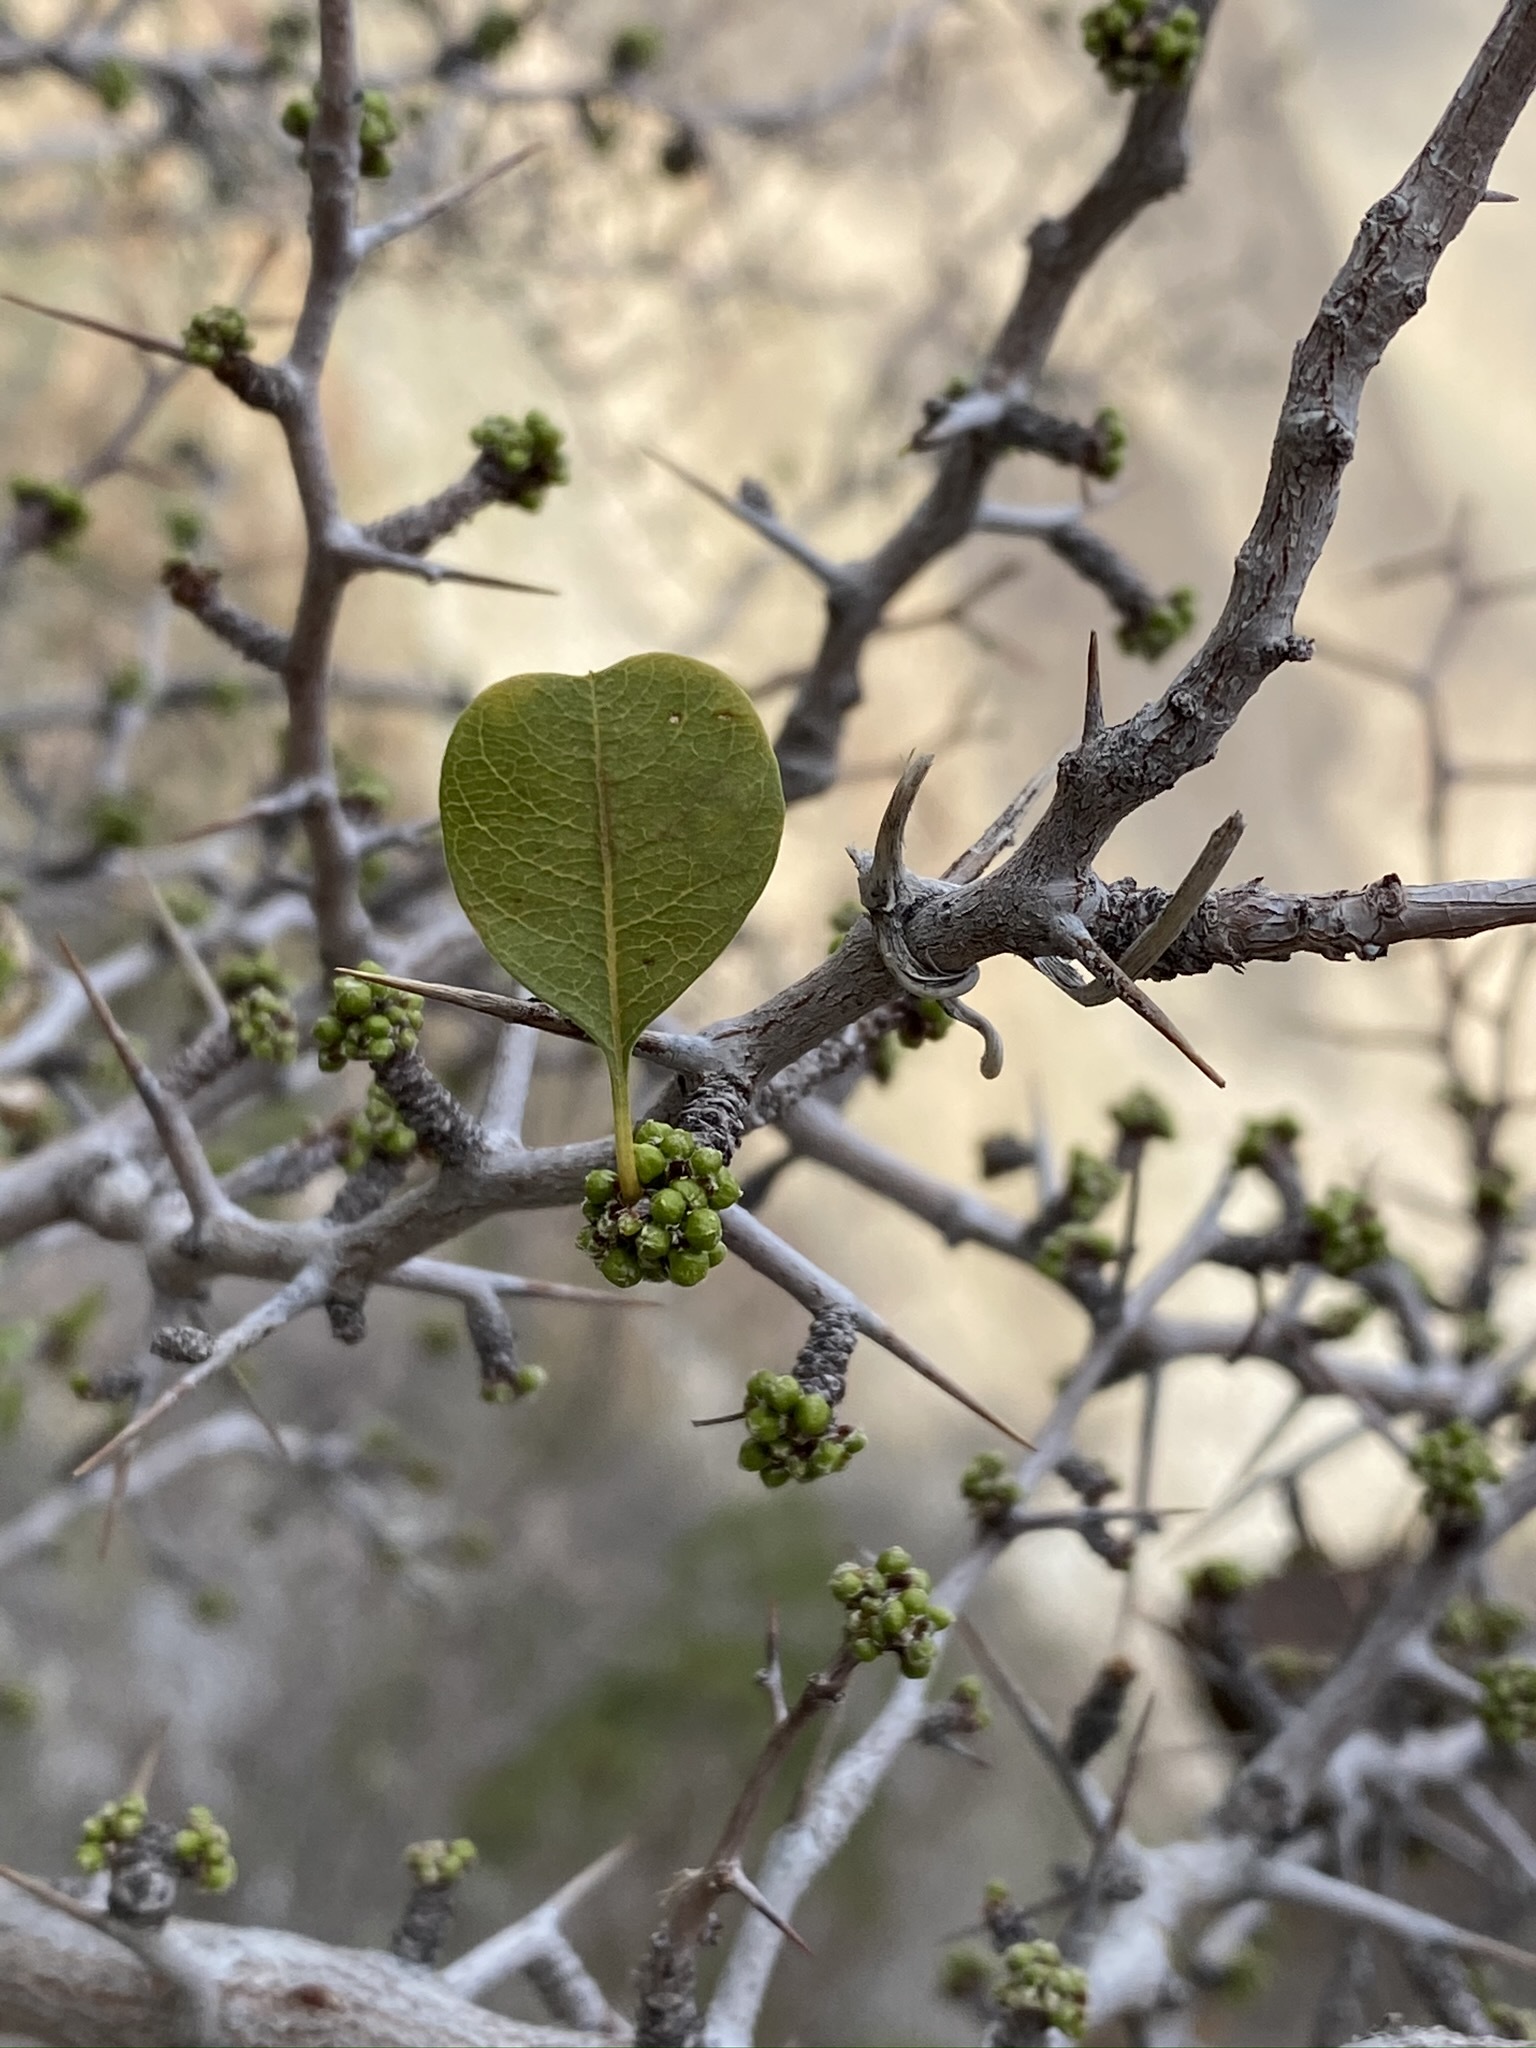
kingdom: Plantae
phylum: Tracheophyta
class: Magnoliopsida
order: Rosales
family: Rhamnaceae
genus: Pseudoziziphus
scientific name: Pseudoziziphus parryi
